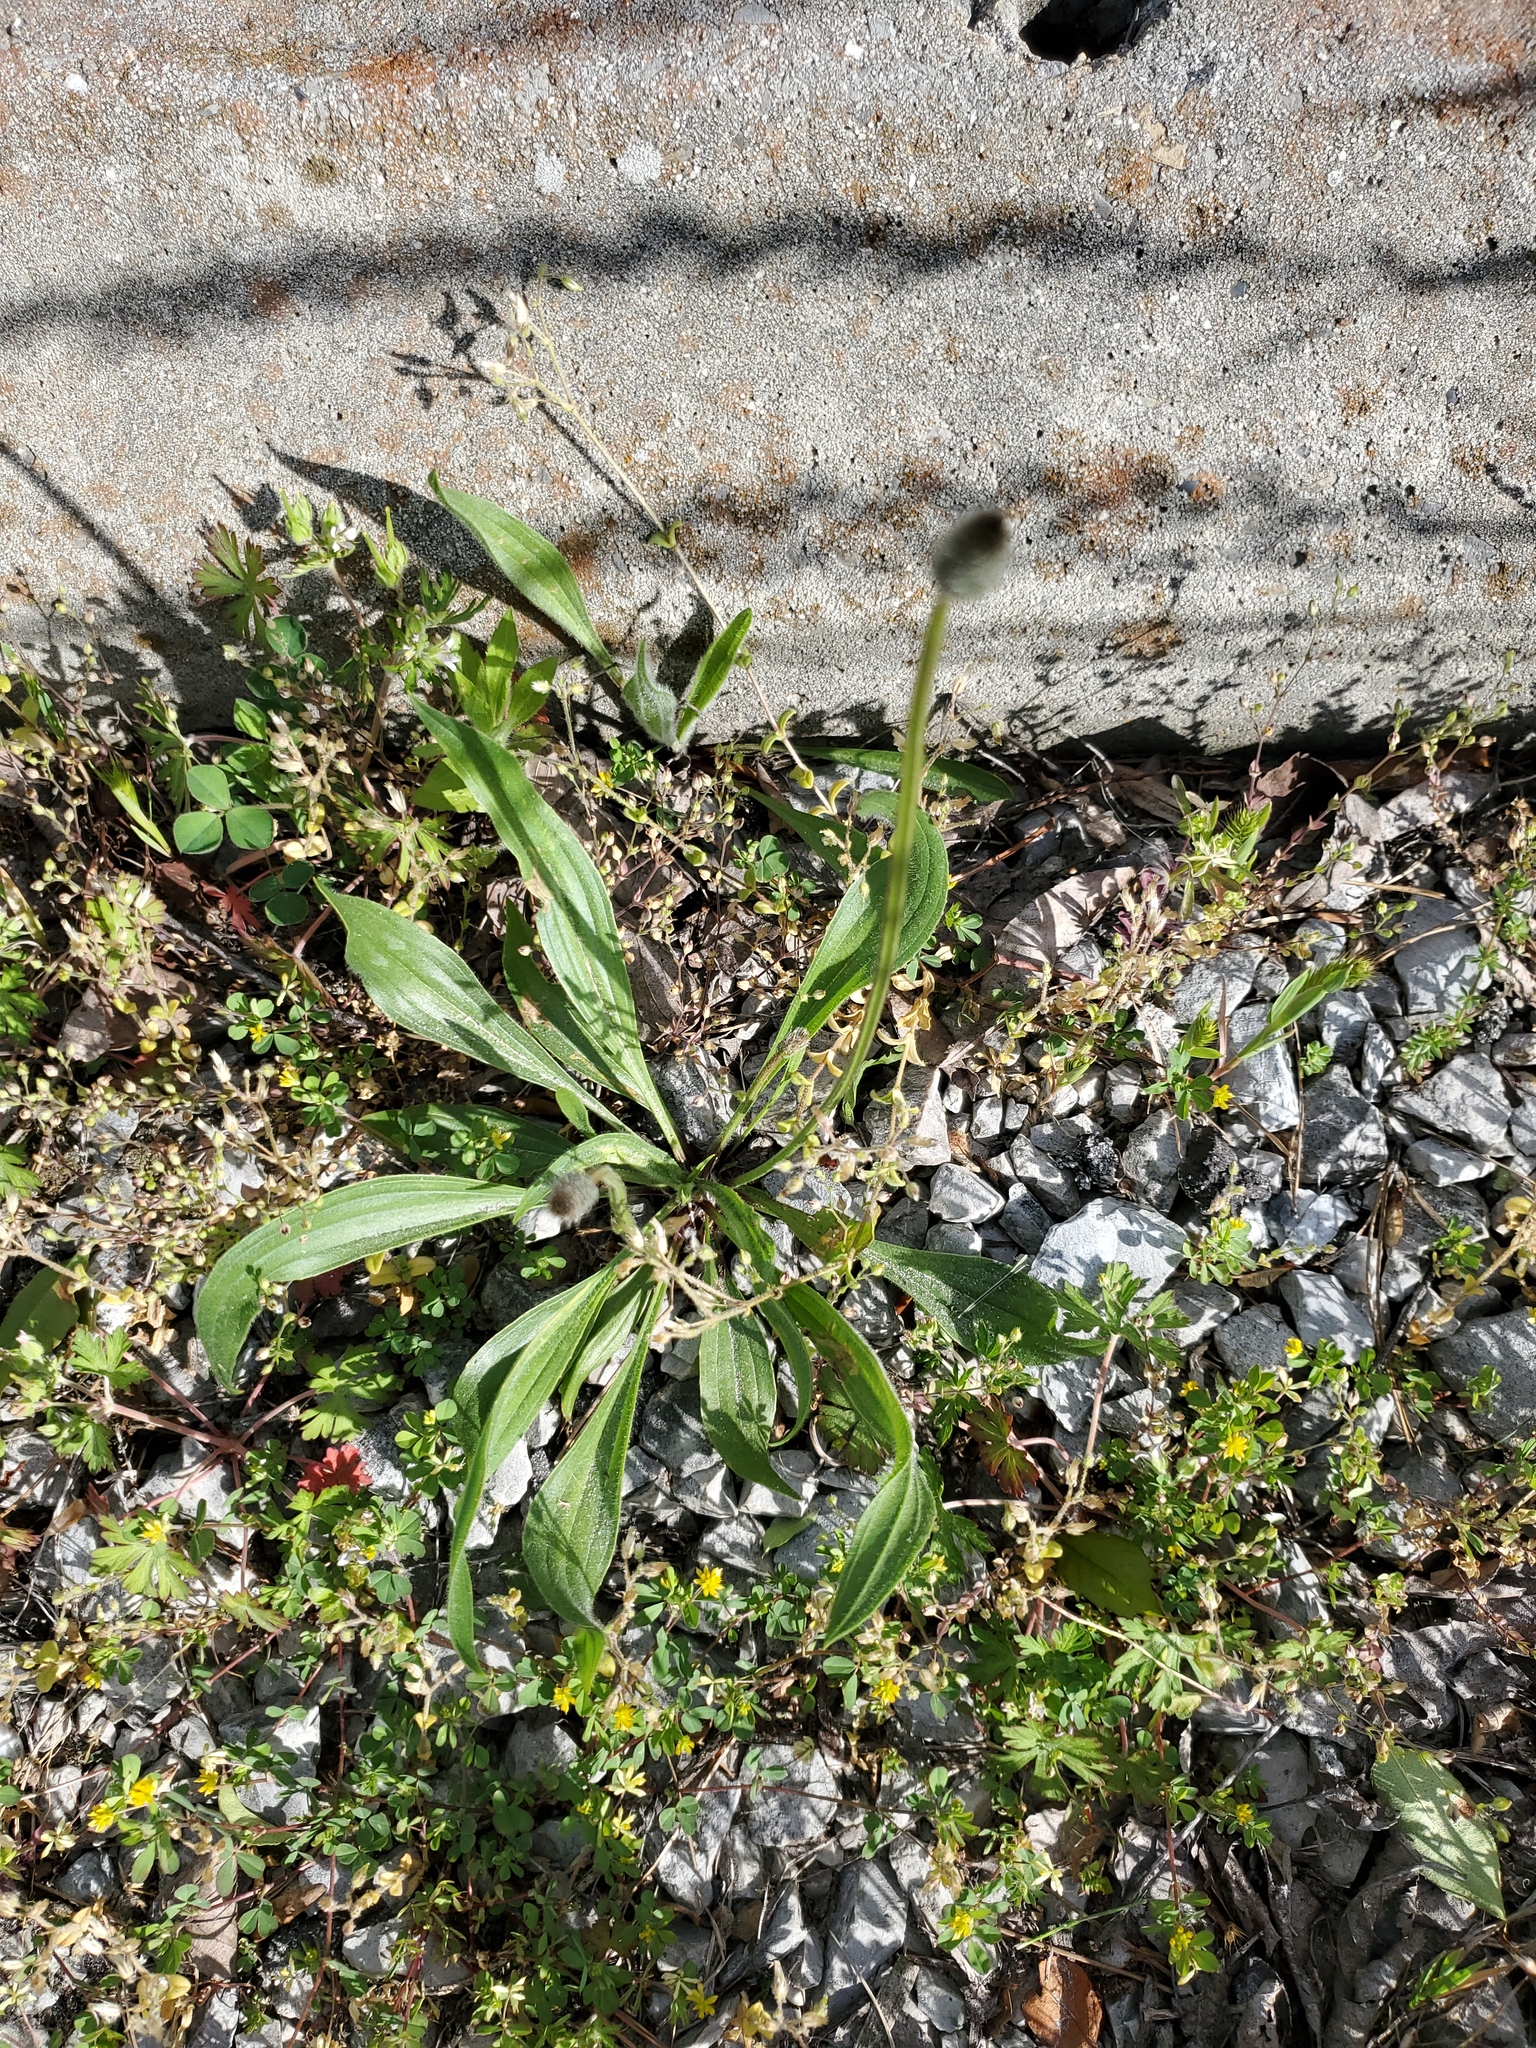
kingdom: Plantae
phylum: Tracheophyta
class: Magnoliopsida
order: Lamiales
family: Plantaginaceae
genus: Plantago
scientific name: Plantago lanceolata
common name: Ribwort plantain
